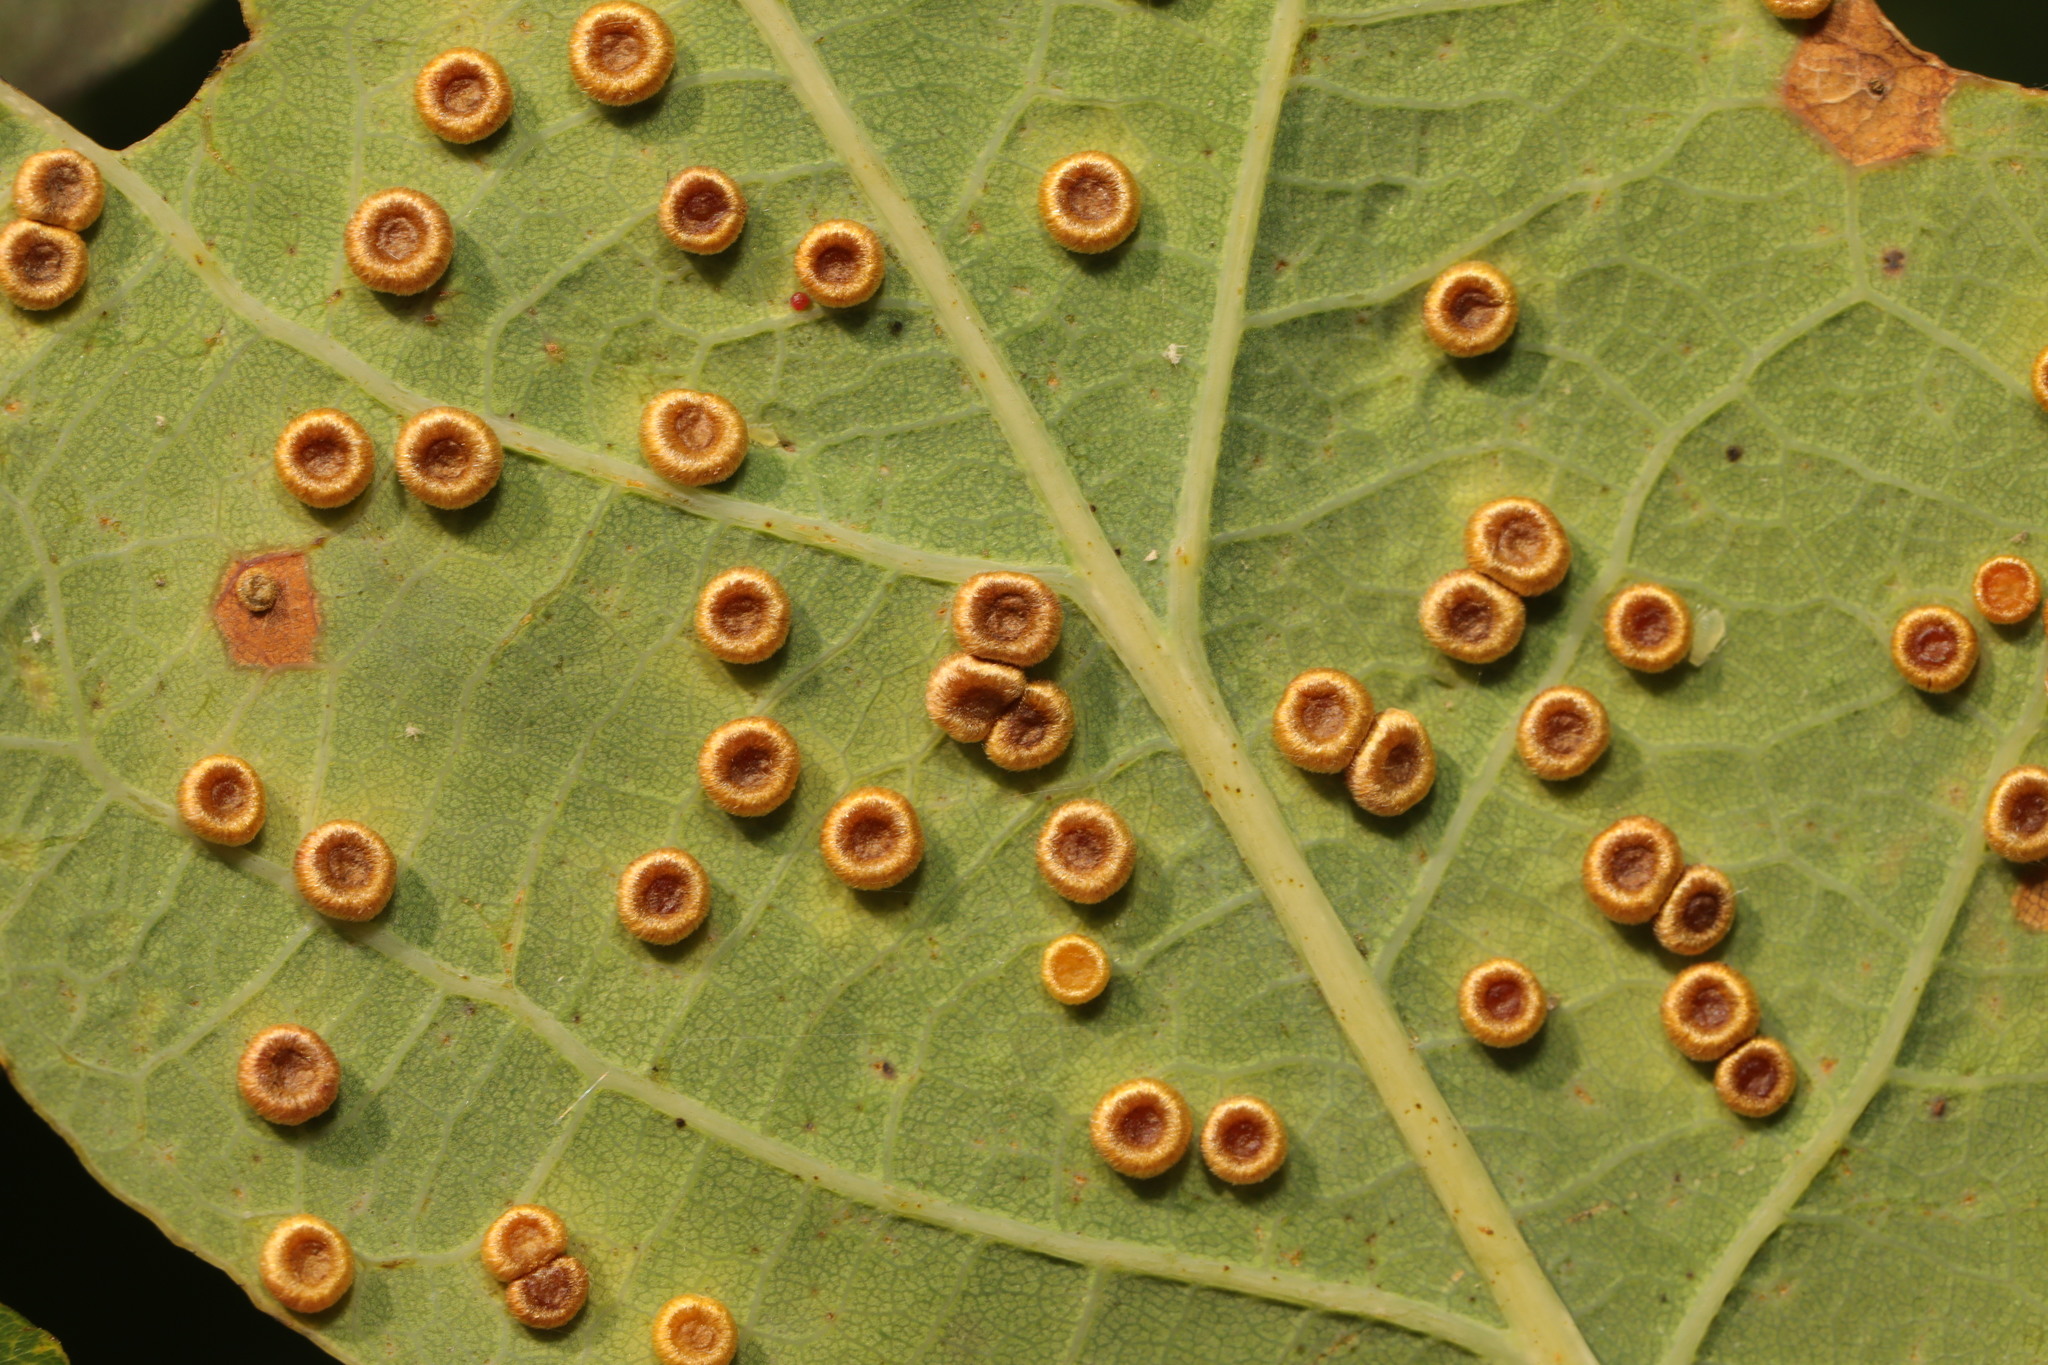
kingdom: Animalia
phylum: Arthropoda
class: Insecta
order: Hymenoptera
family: Cynipidae
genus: Neuroterus
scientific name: Neuroterus numismalis
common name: Silk-button spangle gall
